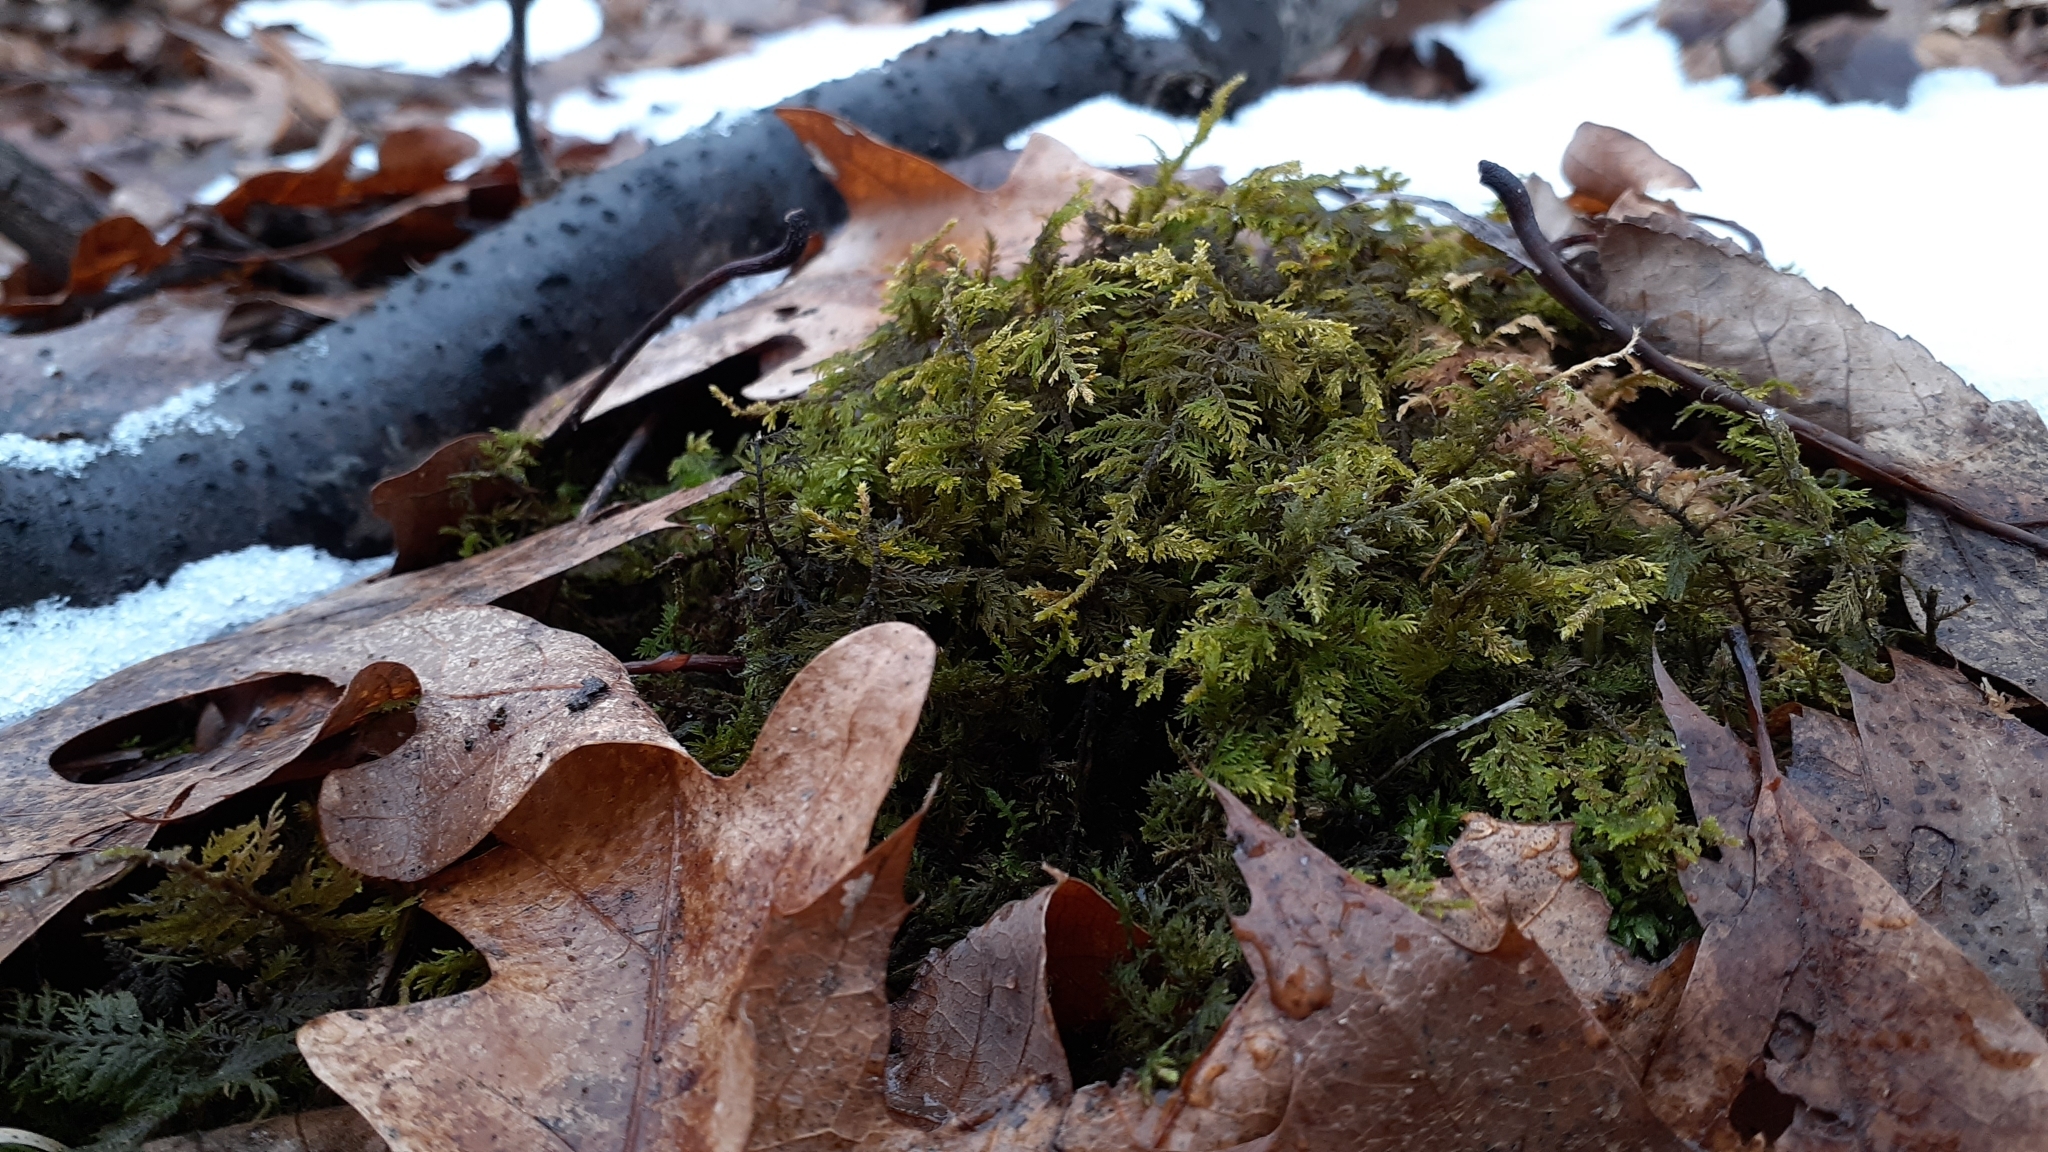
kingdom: Plantae
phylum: Bryophyta
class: Bryopsida
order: Hypnales
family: Thuidiaceae
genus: Thuidium
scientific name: Thuidium delicatulum
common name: Delicate fern moss
